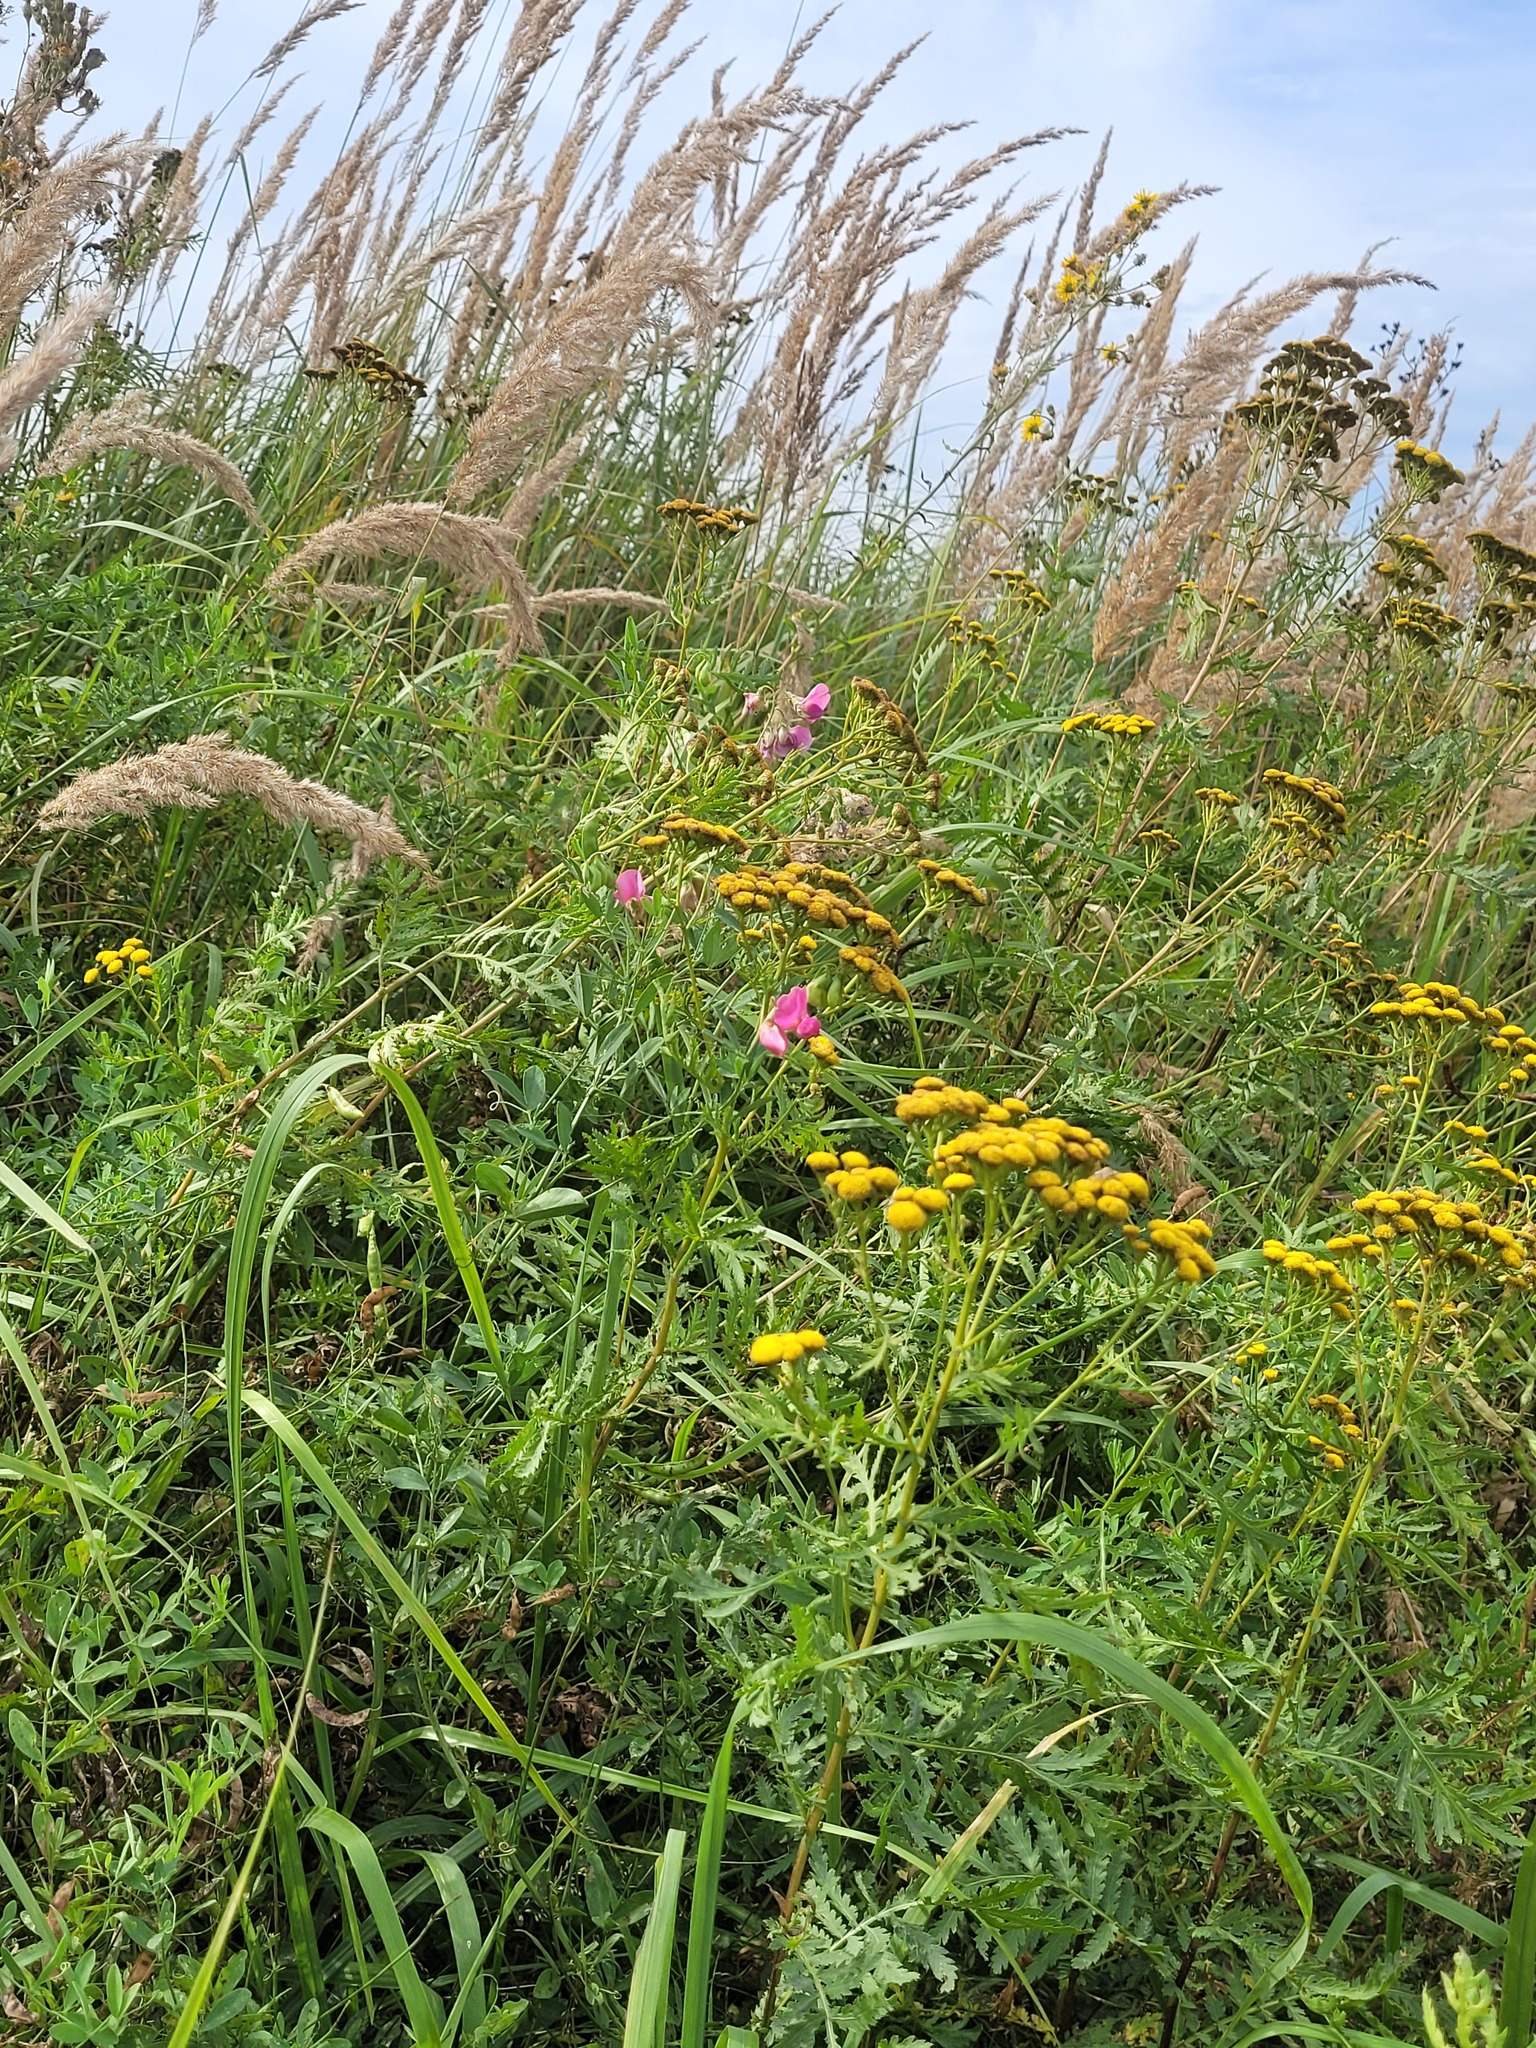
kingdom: Plantae
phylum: Tracheophyta
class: Magnoliopsida
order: Fabales
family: Fabaceae
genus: Lathyrus
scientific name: Lathyrus tuberosus
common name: Tuberous pea
